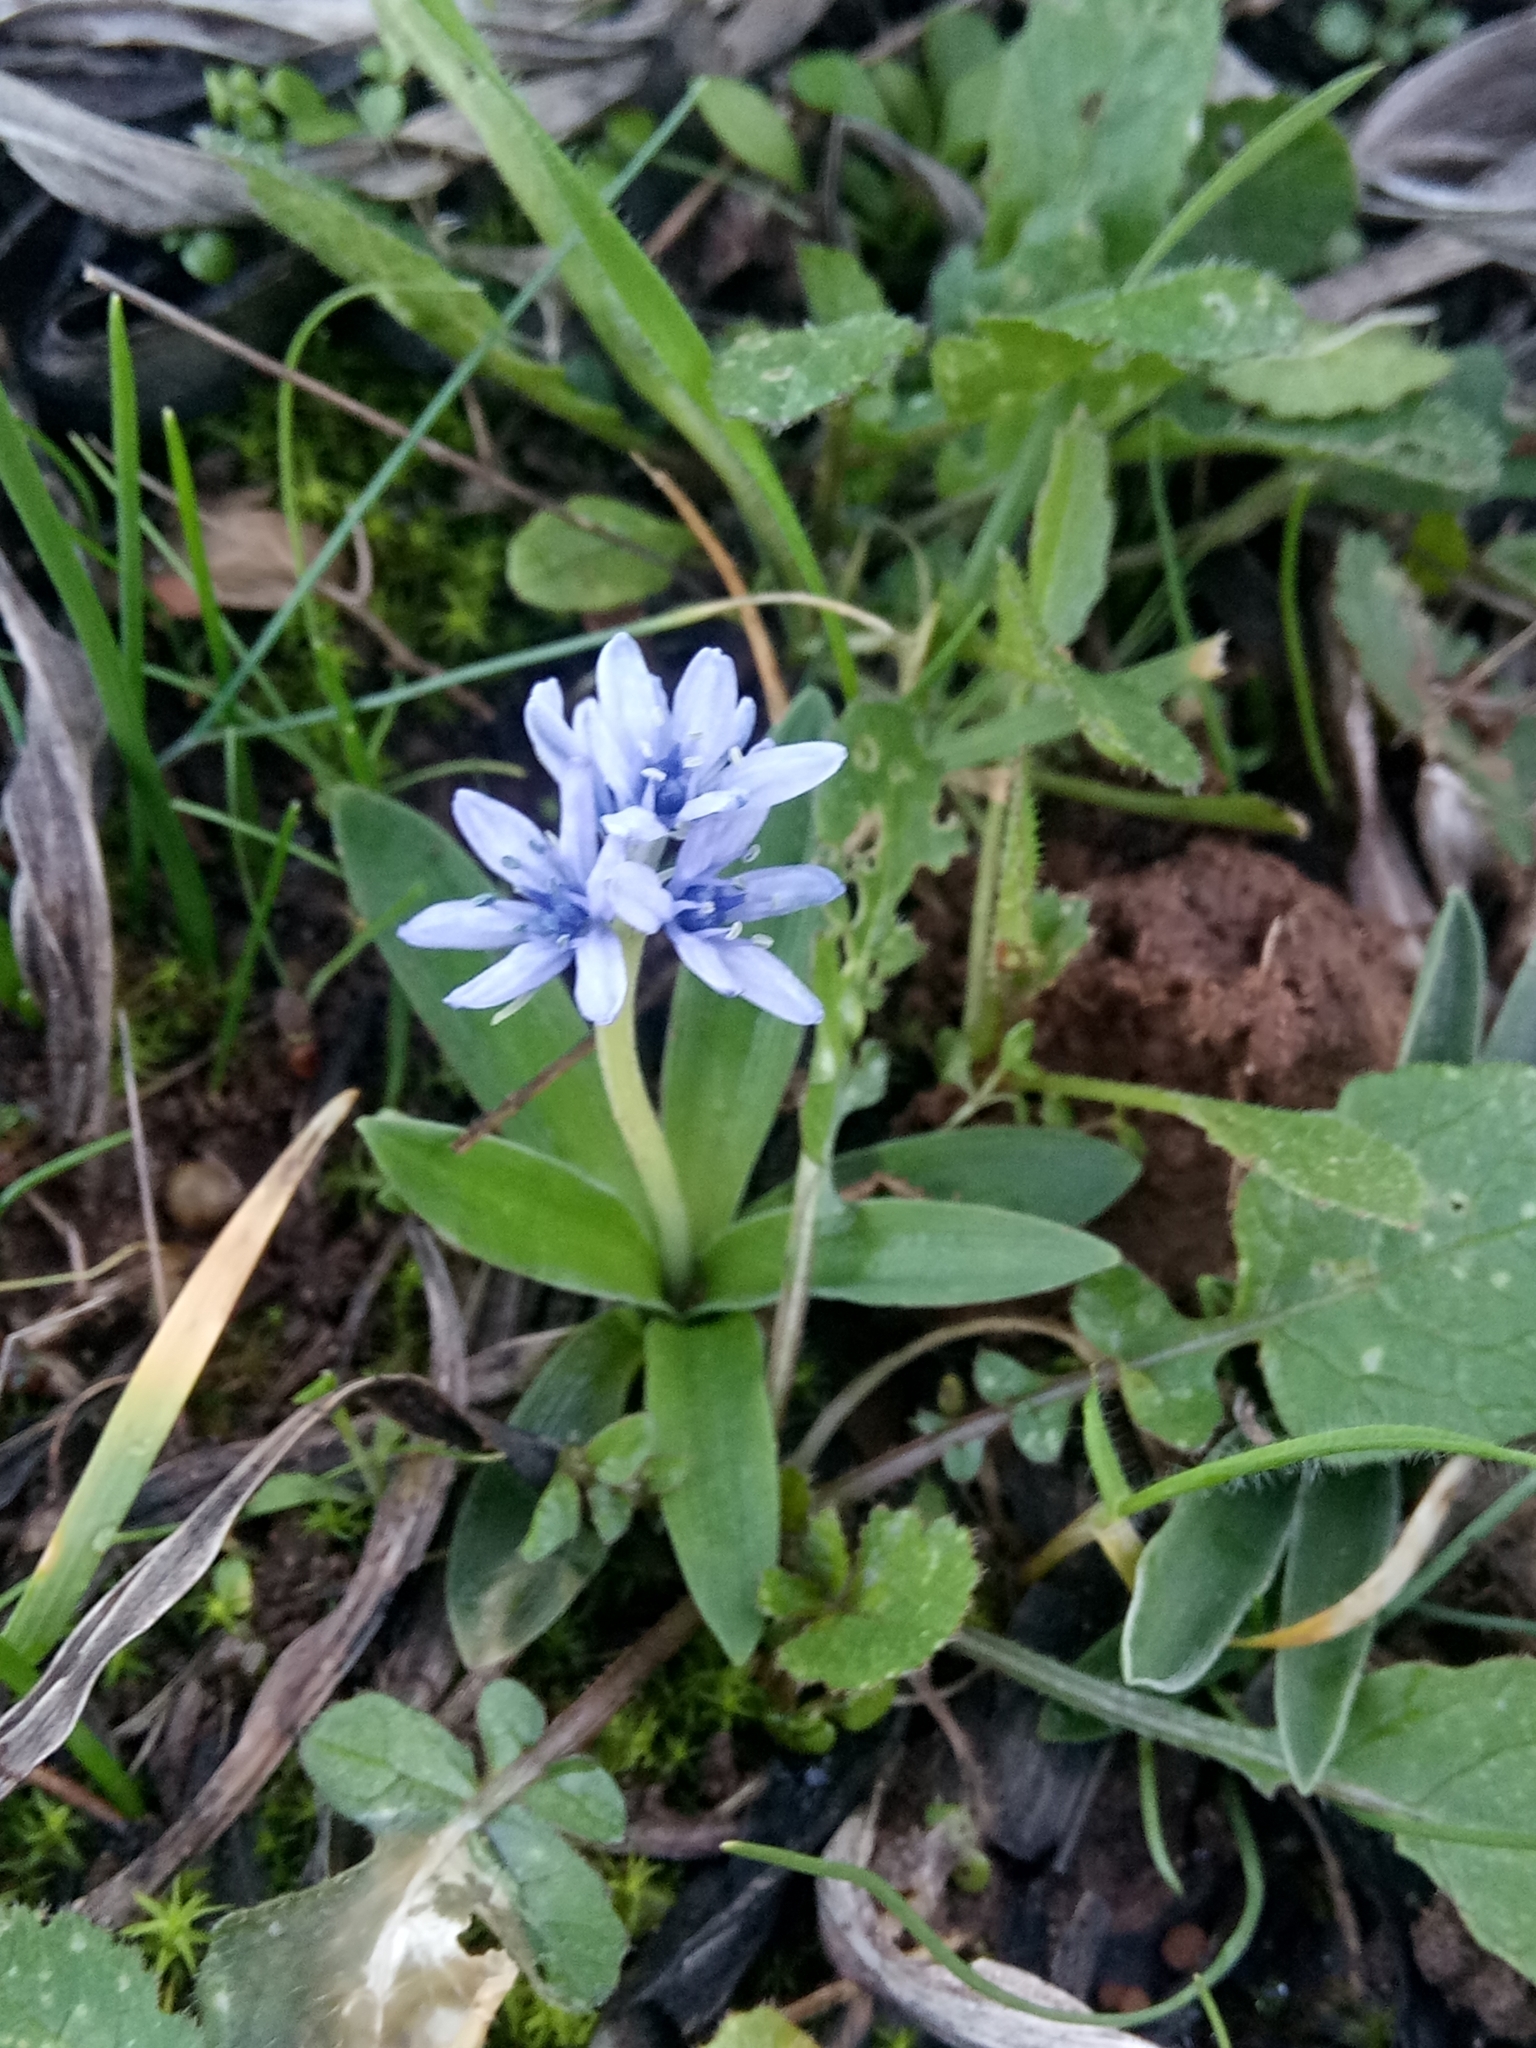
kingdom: Plantae
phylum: Tracheophyta
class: Liliopsida
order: Asparagales
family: Asparagaceae
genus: Hyacinthoides
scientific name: Hyacinthoides lingulata
